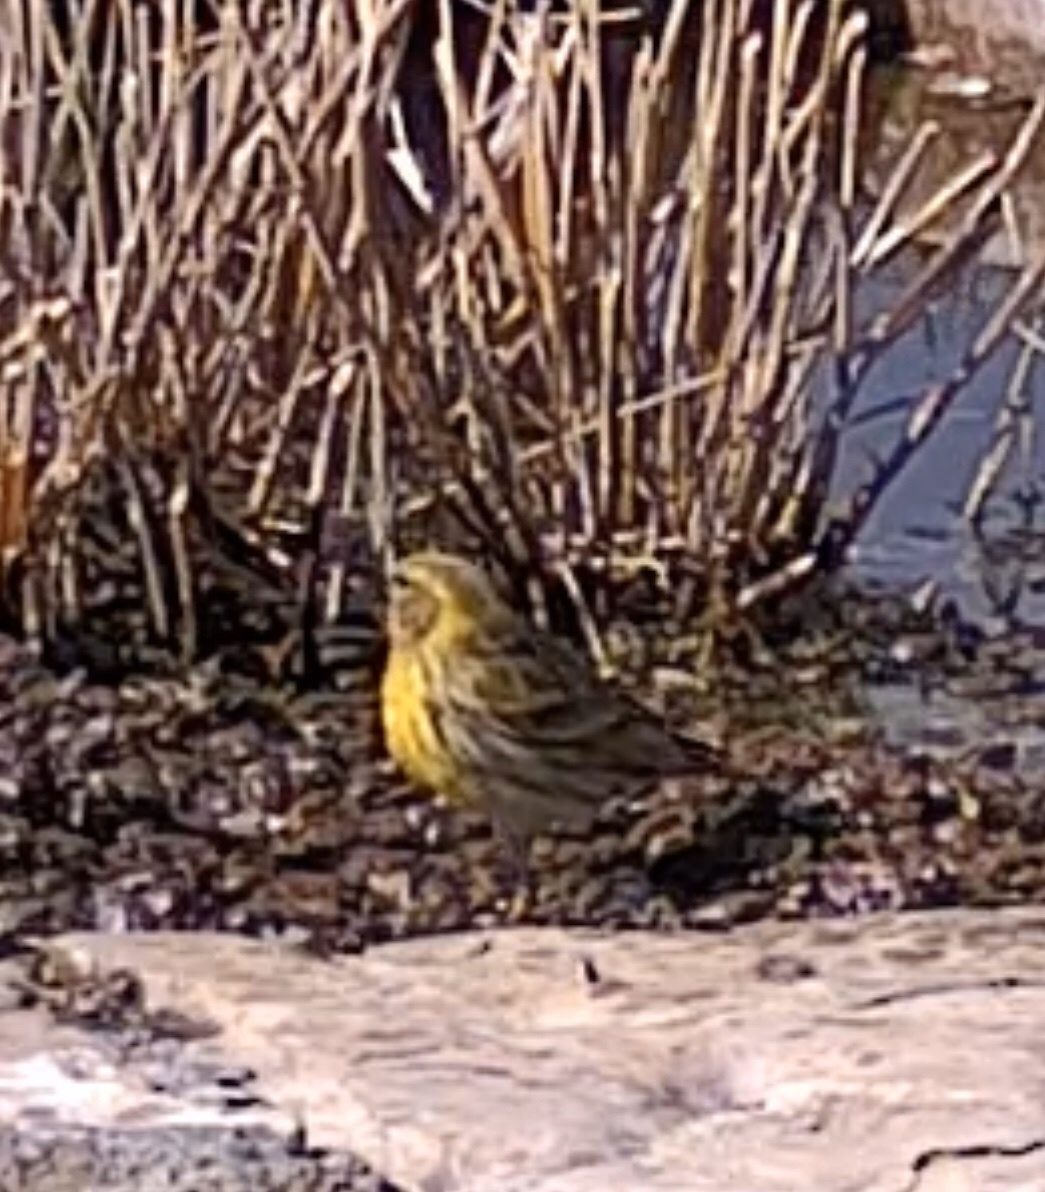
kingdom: Animalia
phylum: Chordata
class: Aves
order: Passeriformes
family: Fringillidae
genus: Serinus
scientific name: Serinus serinus
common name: European serin
